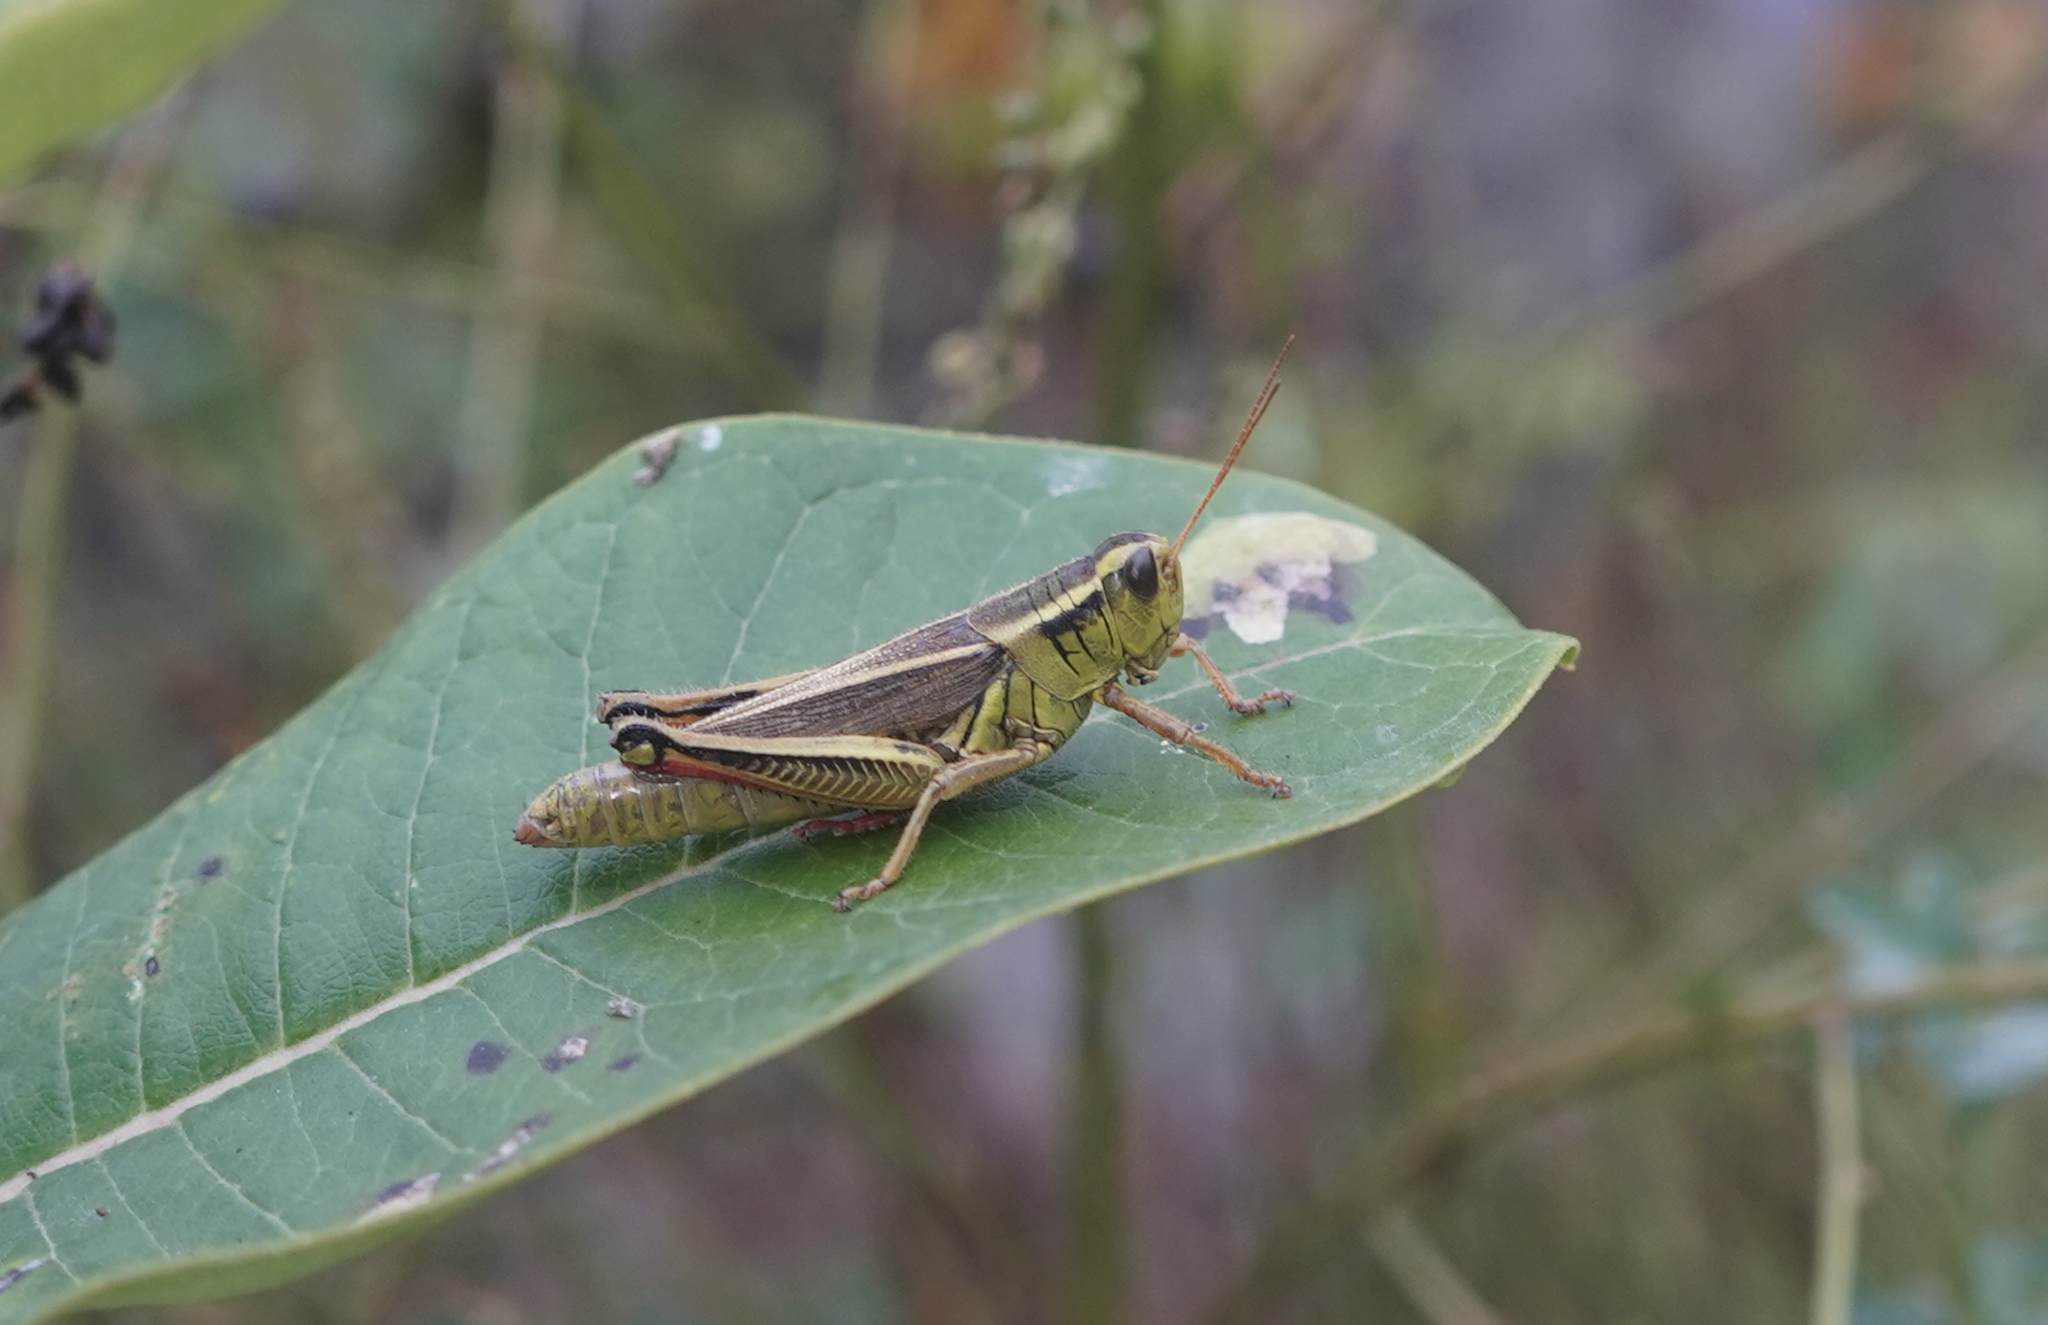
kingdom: Animalia
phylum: Arthropoda
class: Insecta
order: Orthoptera
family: Acrididae
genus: Melanoplus
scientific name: Melanoplus bivittatus
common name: Two-striped grasshopper
